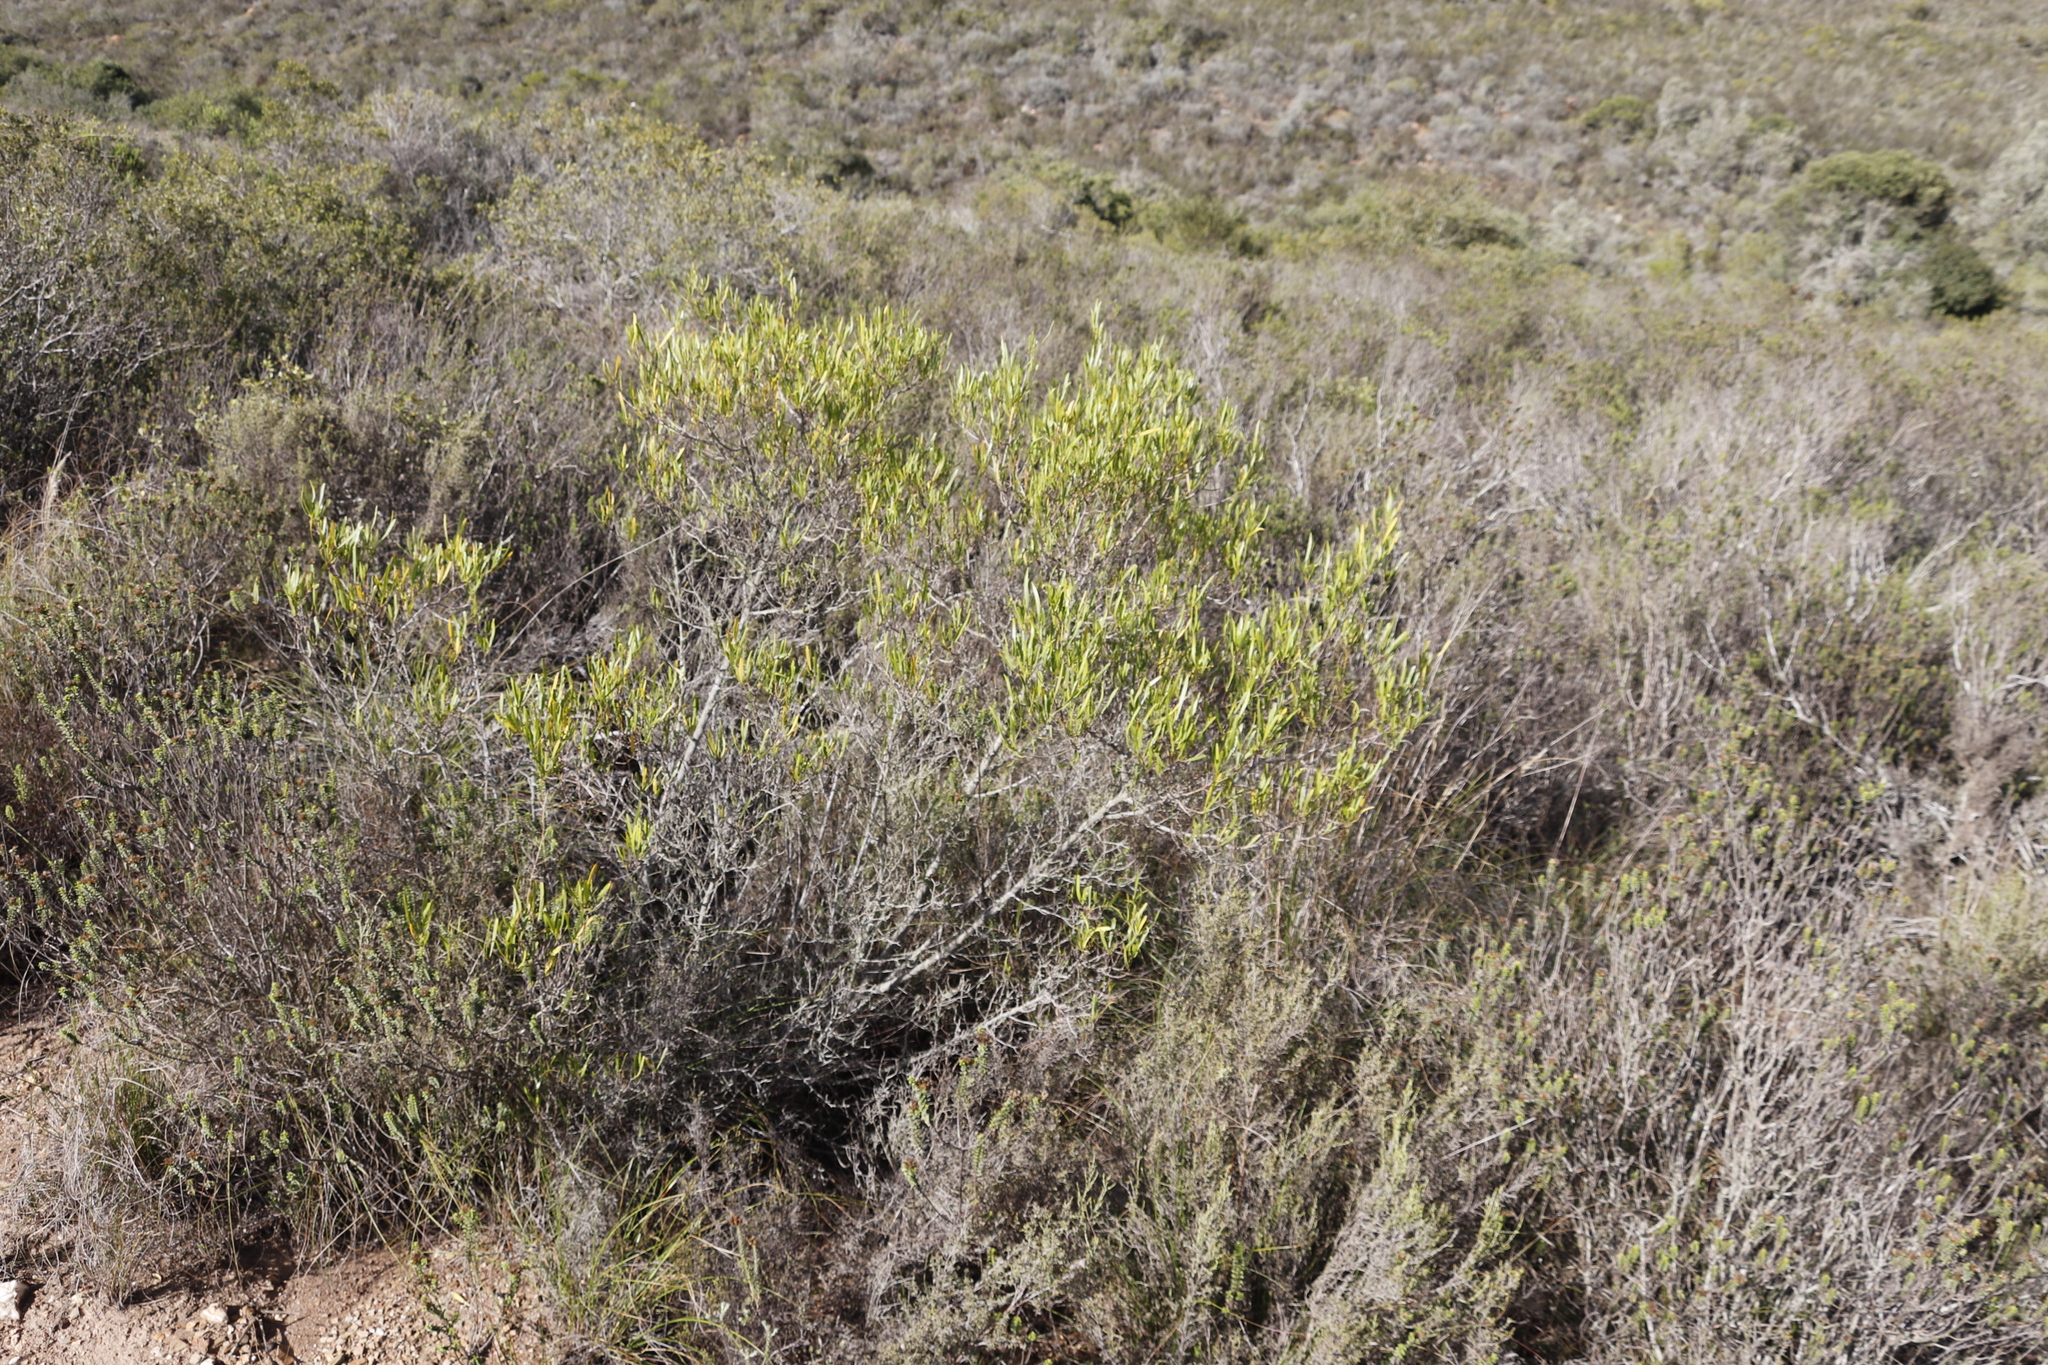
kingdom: Plantae
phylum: Tracheophyta
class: Magnoliopsida
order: Sapindales
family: Sapindaceae
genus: Dodonaea
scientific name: Dodonaea viscosa
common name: Hopbush
